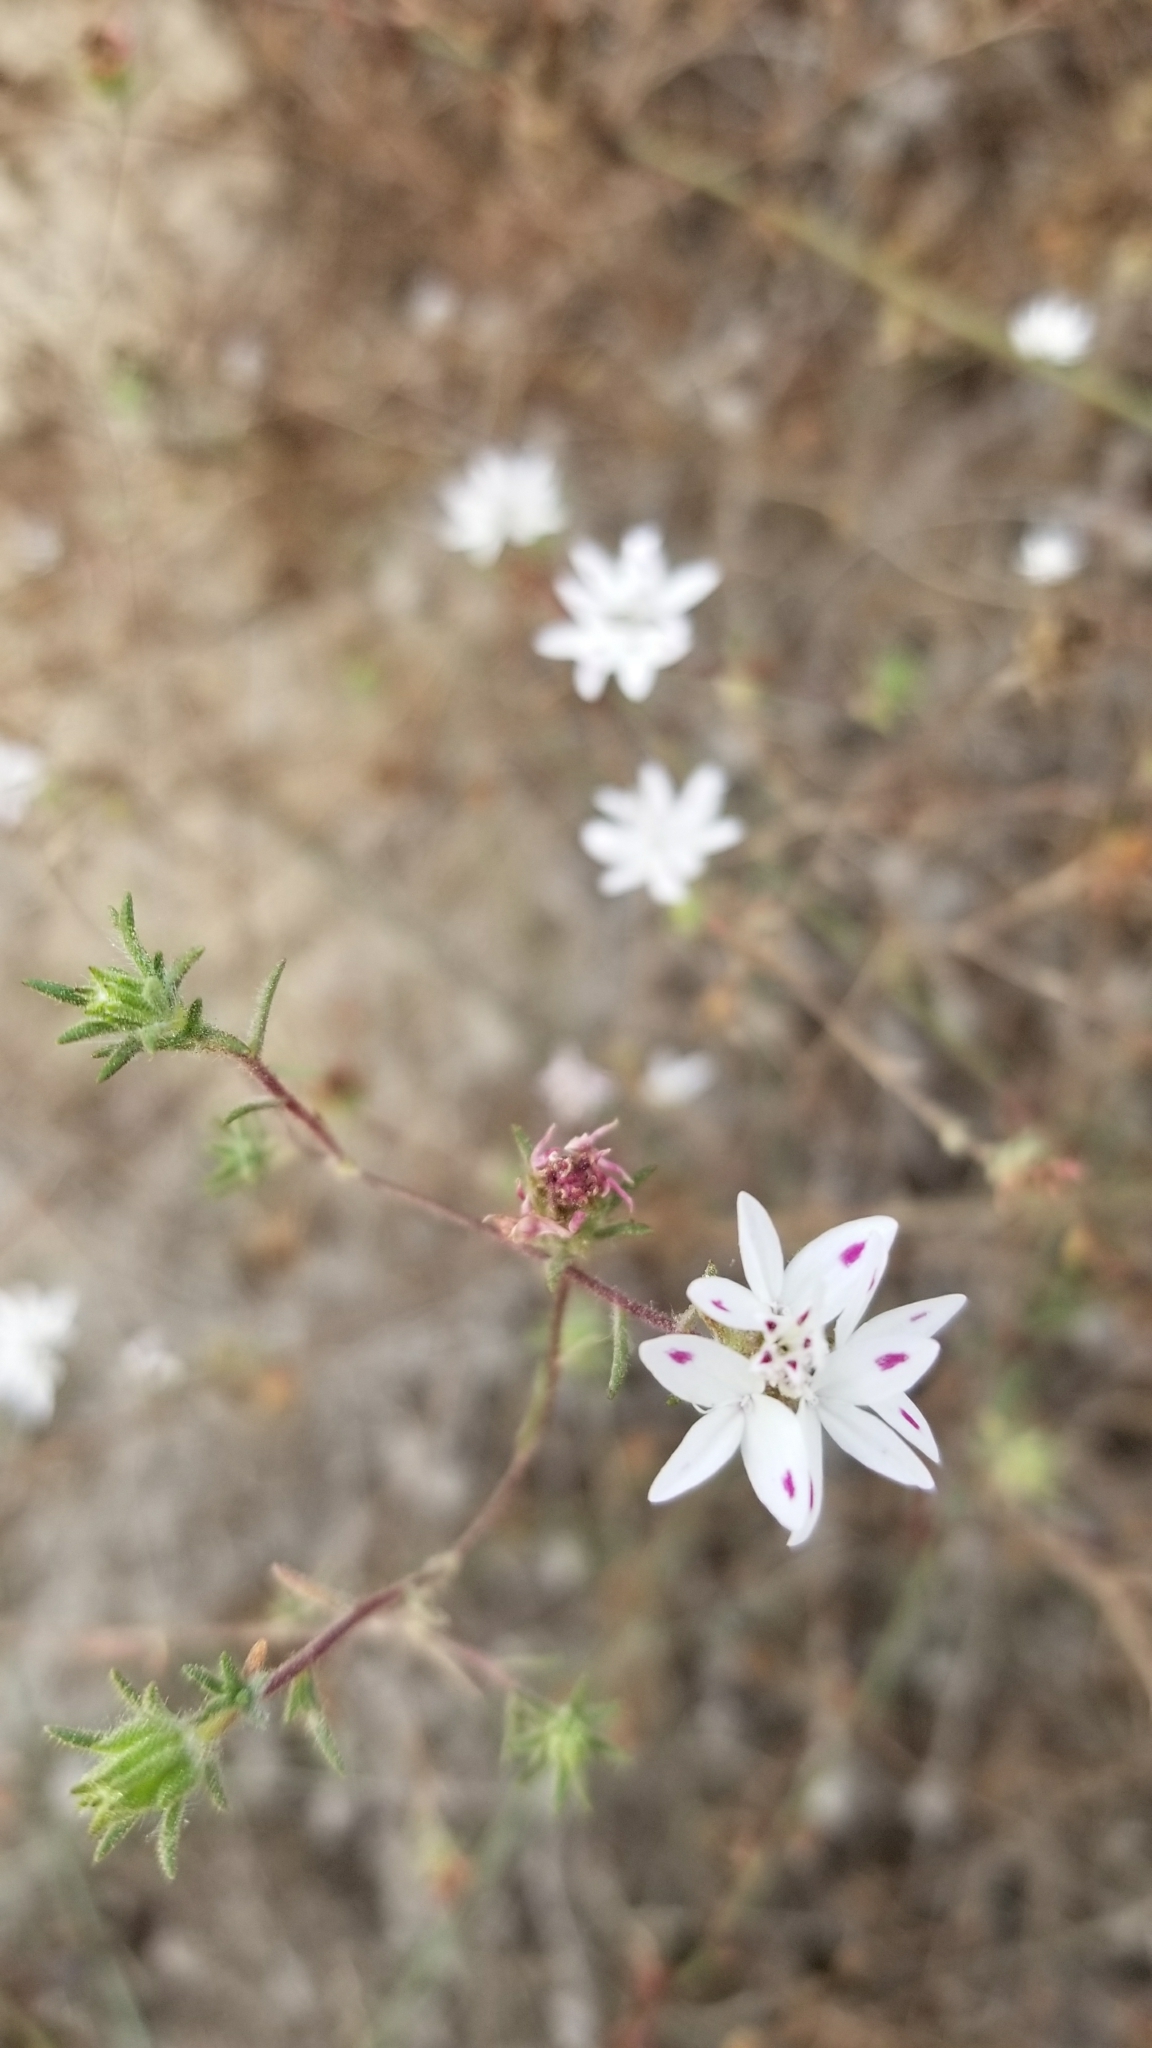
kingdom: Plantae
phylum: Tracheophyta
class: Magnoliopsida
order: Asterales
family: Asteraceae
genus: Osmadenia
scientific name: Osmadenia tenella
